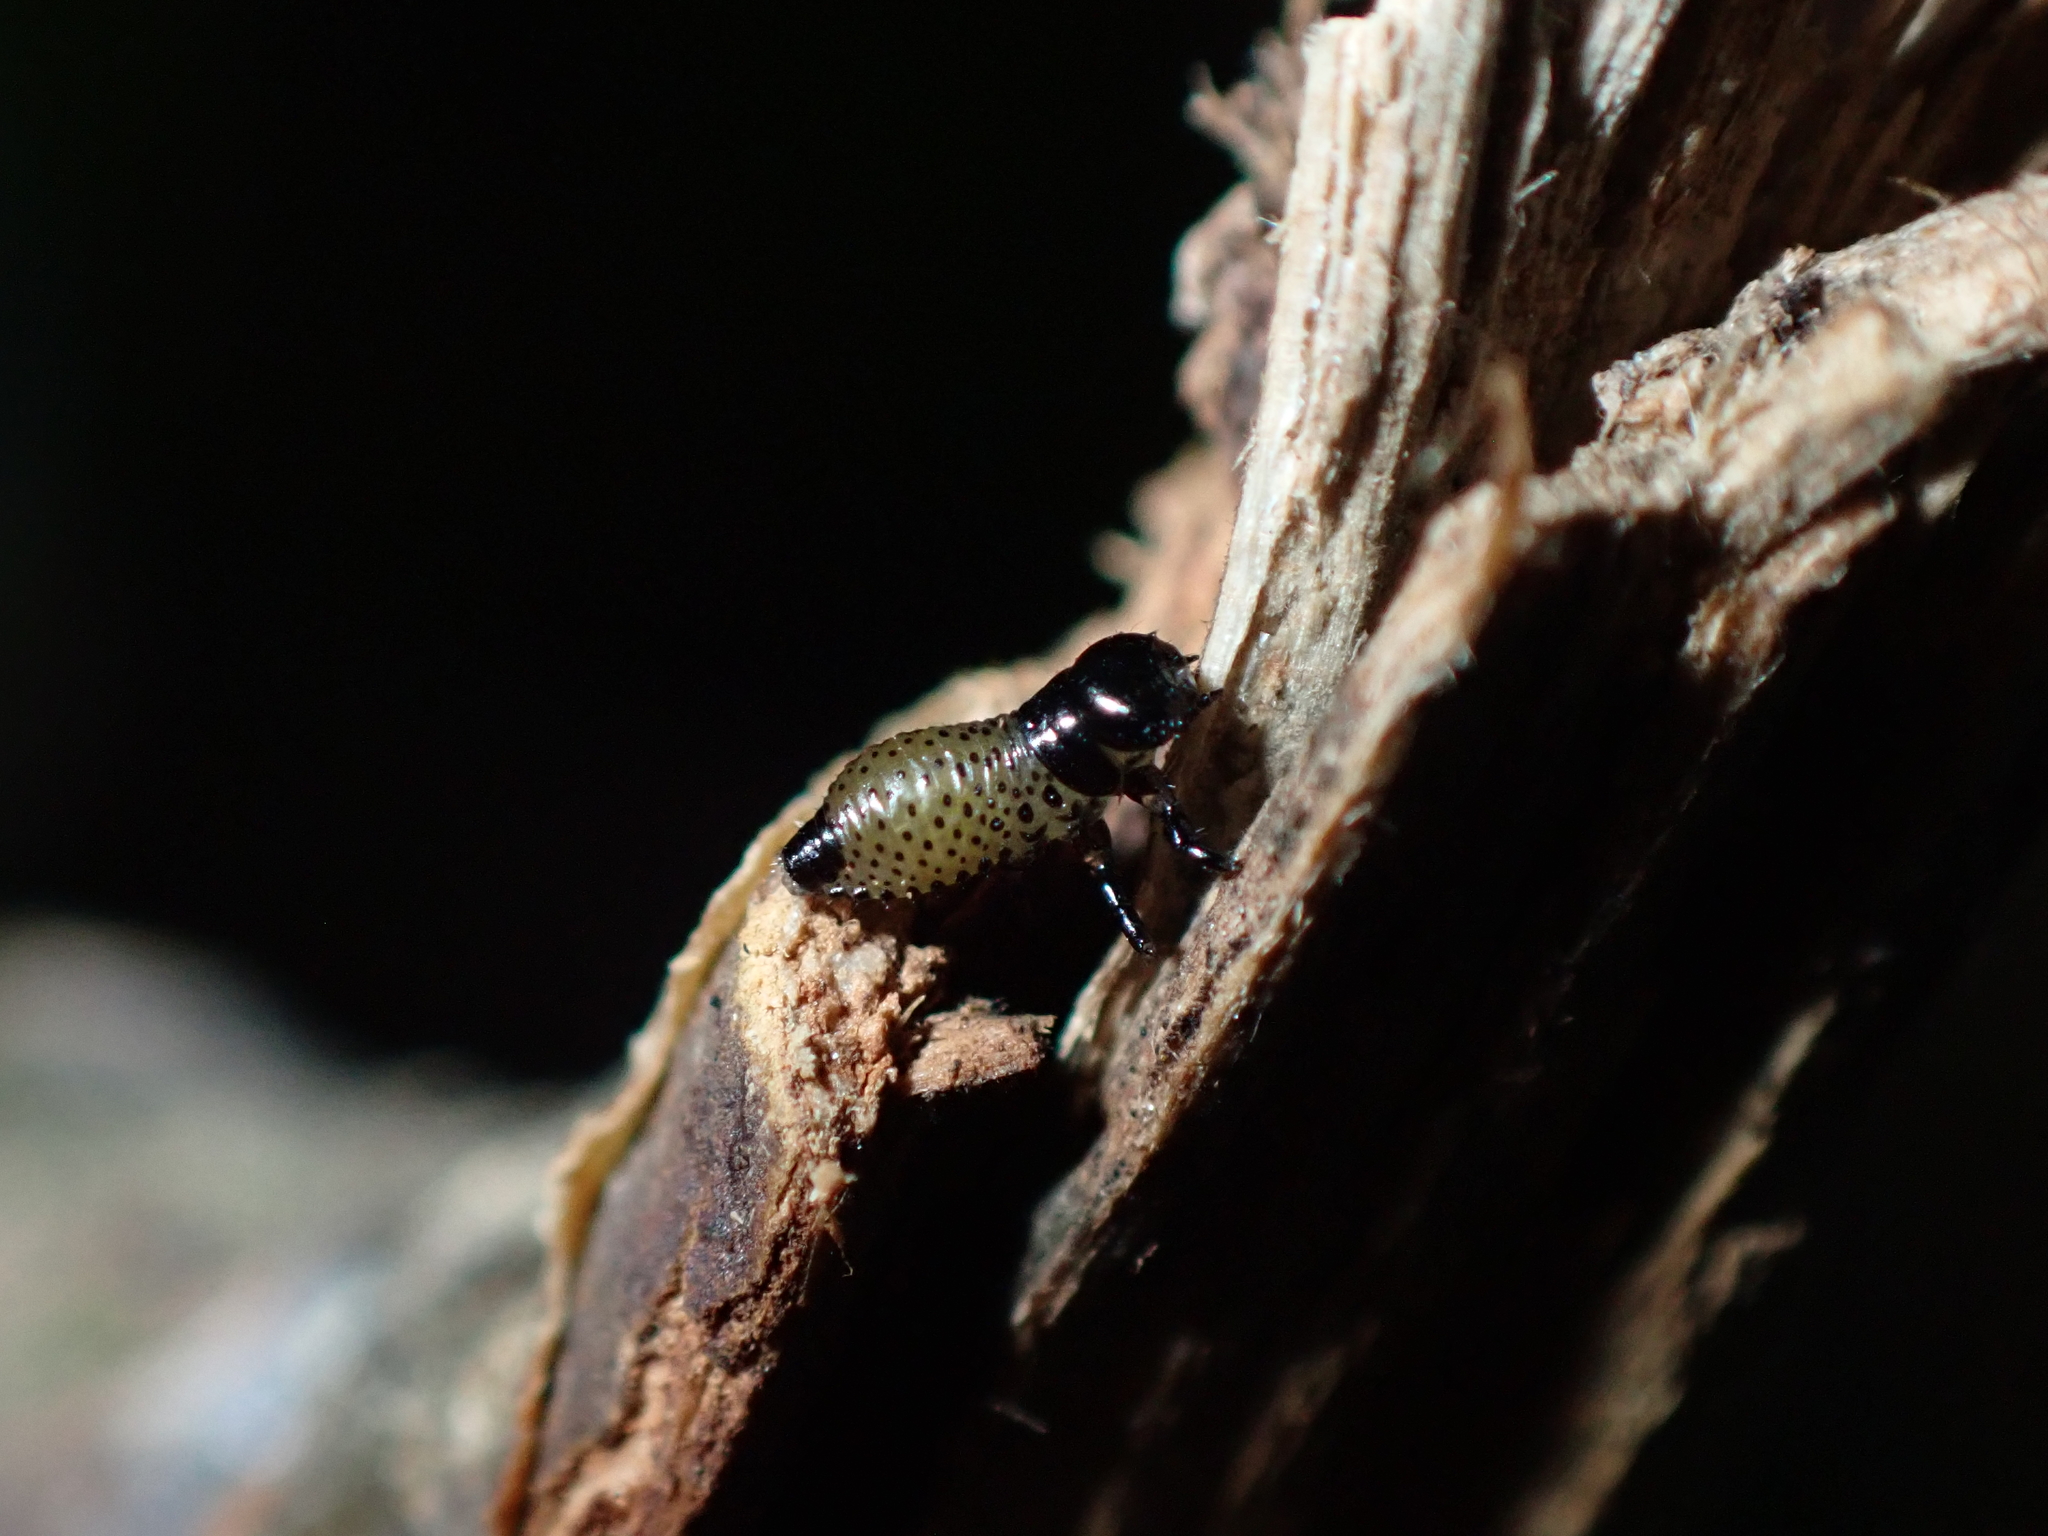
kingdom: Animalia
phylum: Arthropoda
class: Insecta
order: Coleoptera
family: Chrysomelidae
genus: Dicranosterna
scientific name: Dicranosterna
